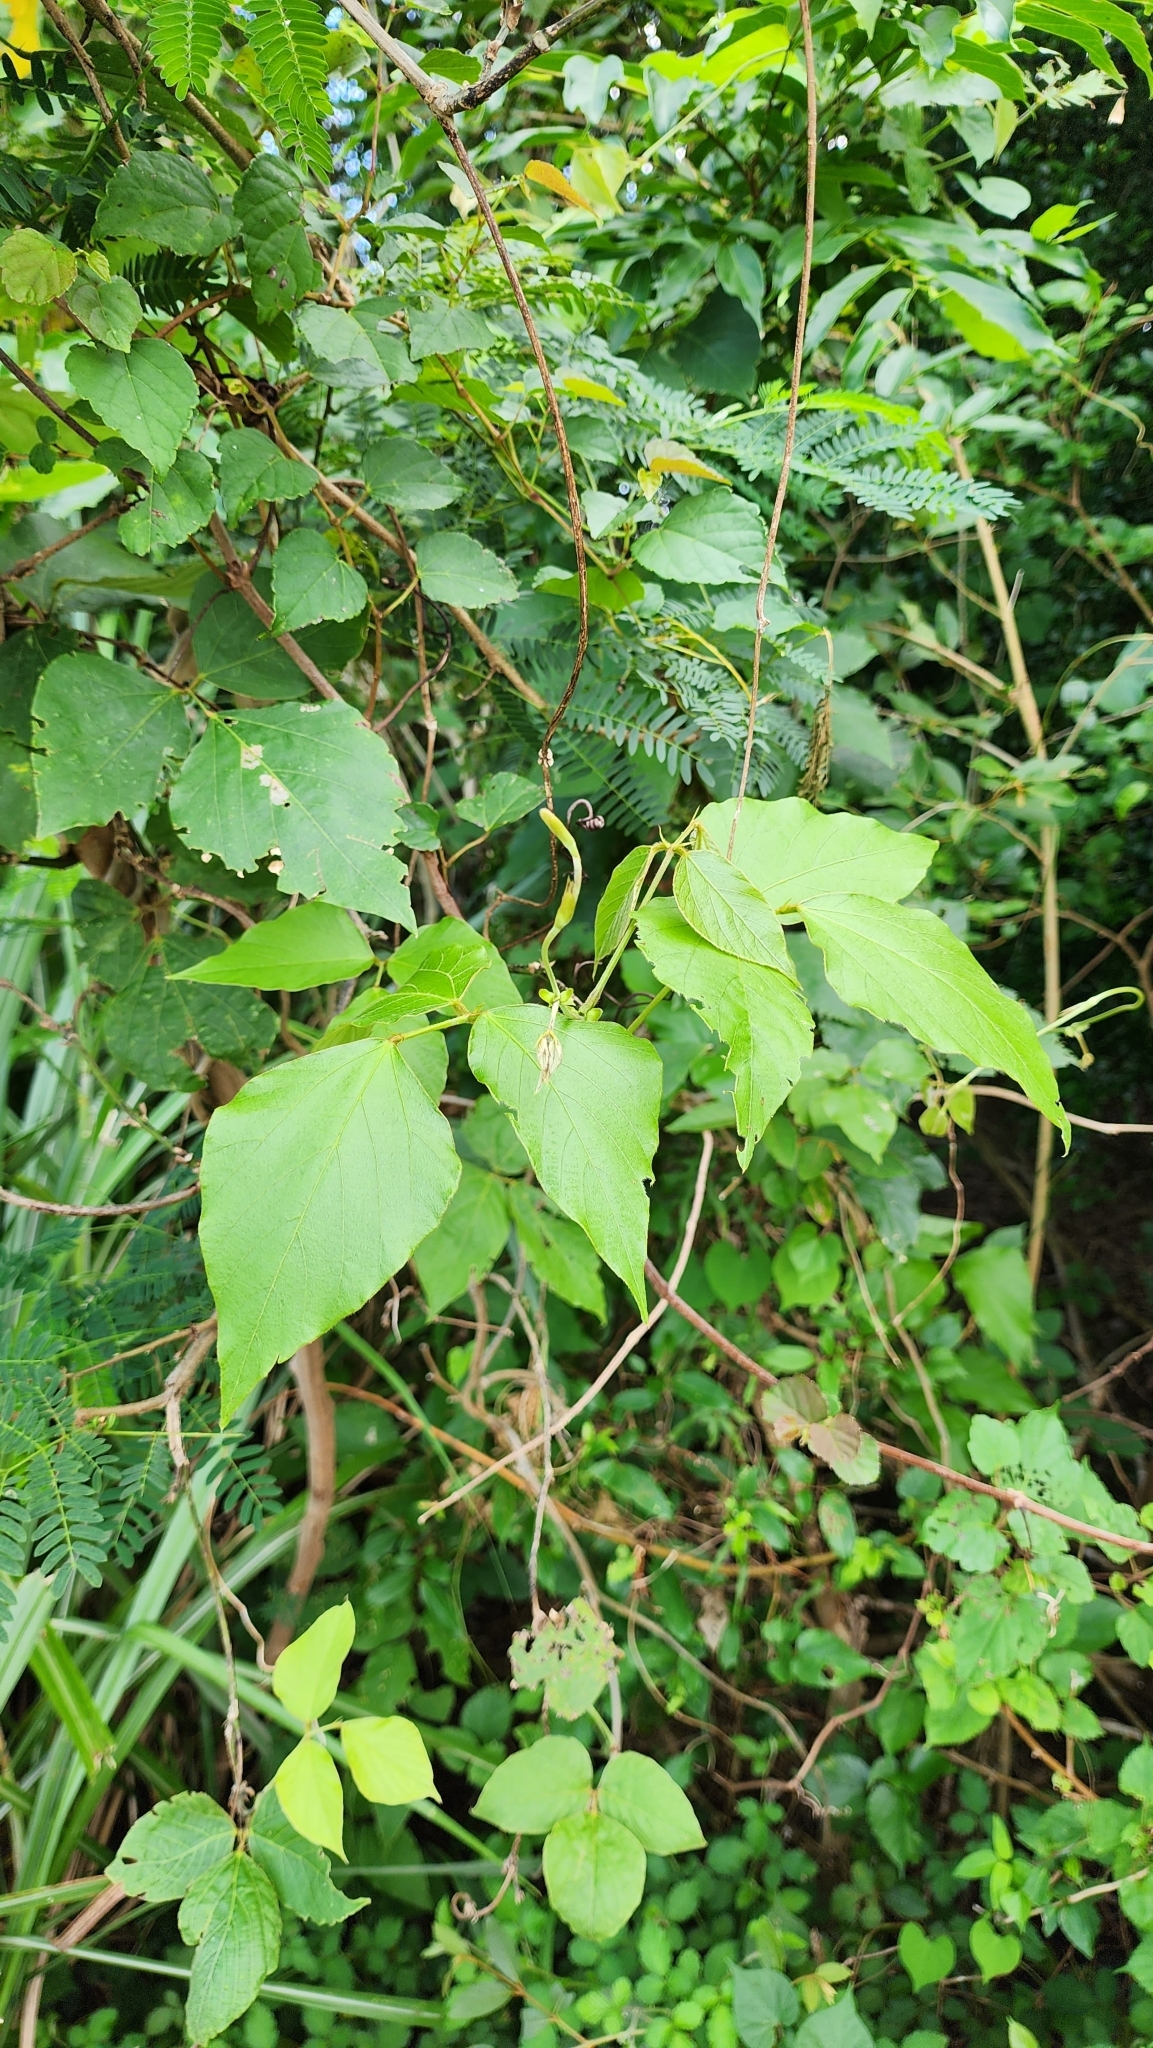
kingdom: Plantae
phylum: Tracheophyta
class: Magnoliopsida
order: Fabales
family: Fabaceae
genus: Pueraria
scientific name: Pueraria montana
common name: Kudzu
